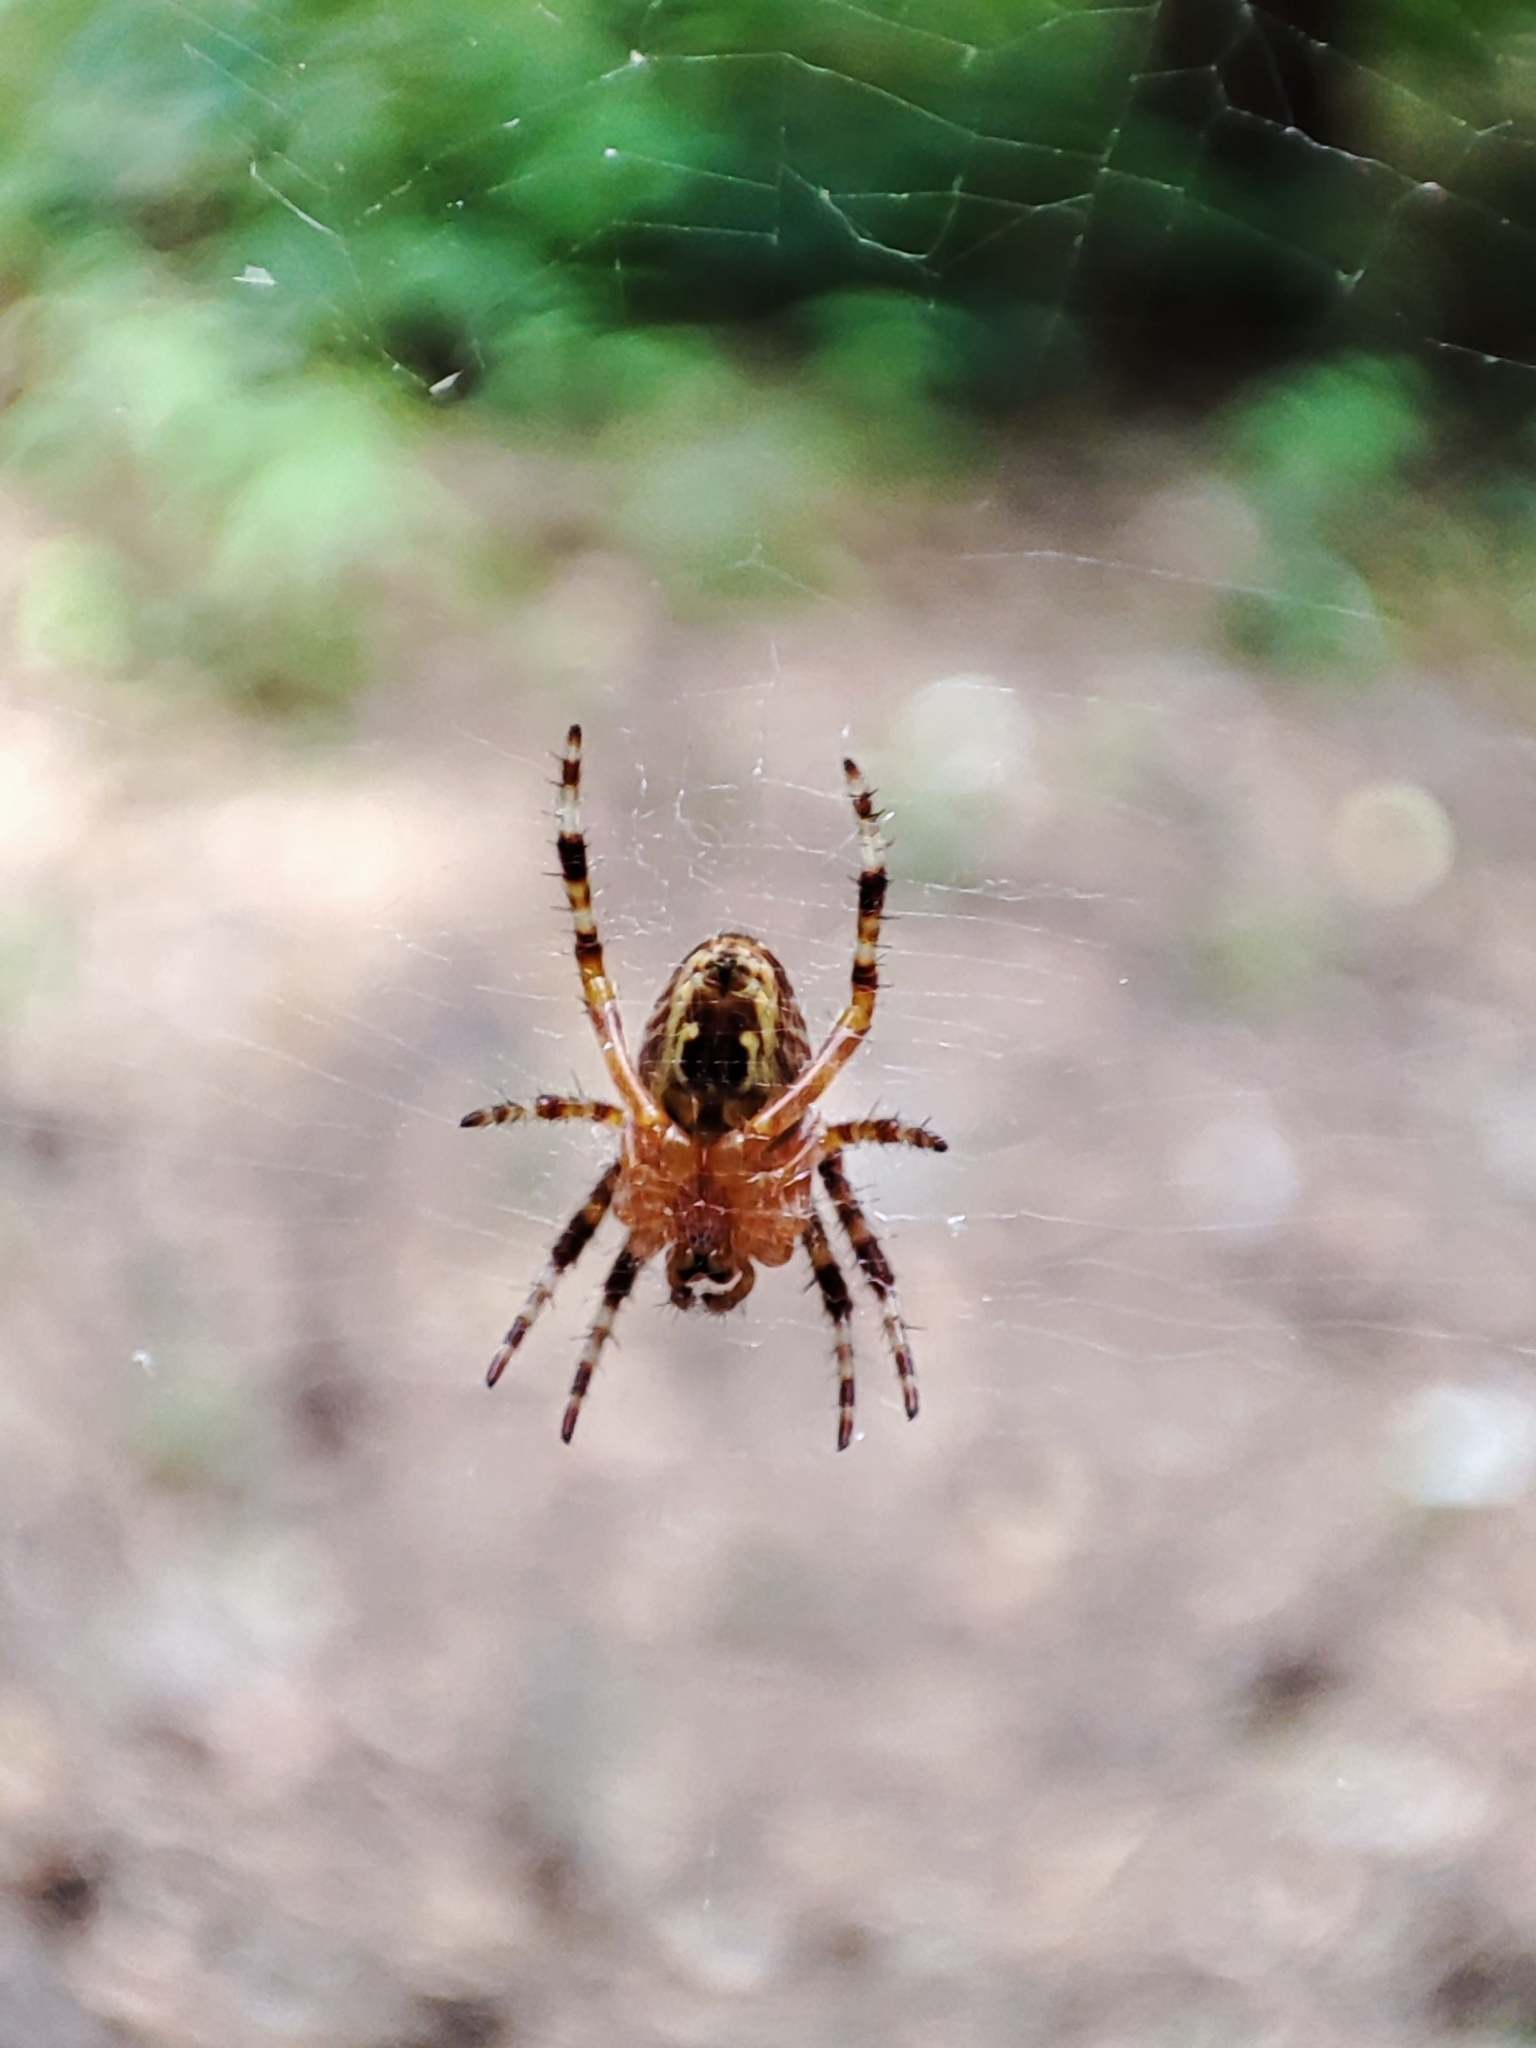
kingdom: Animalia
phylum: Arthropoda
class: Arachnida
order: Araneae
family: Araneidae
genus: Araneus
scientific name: Araneus diadematus
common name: Cross orbweaver
